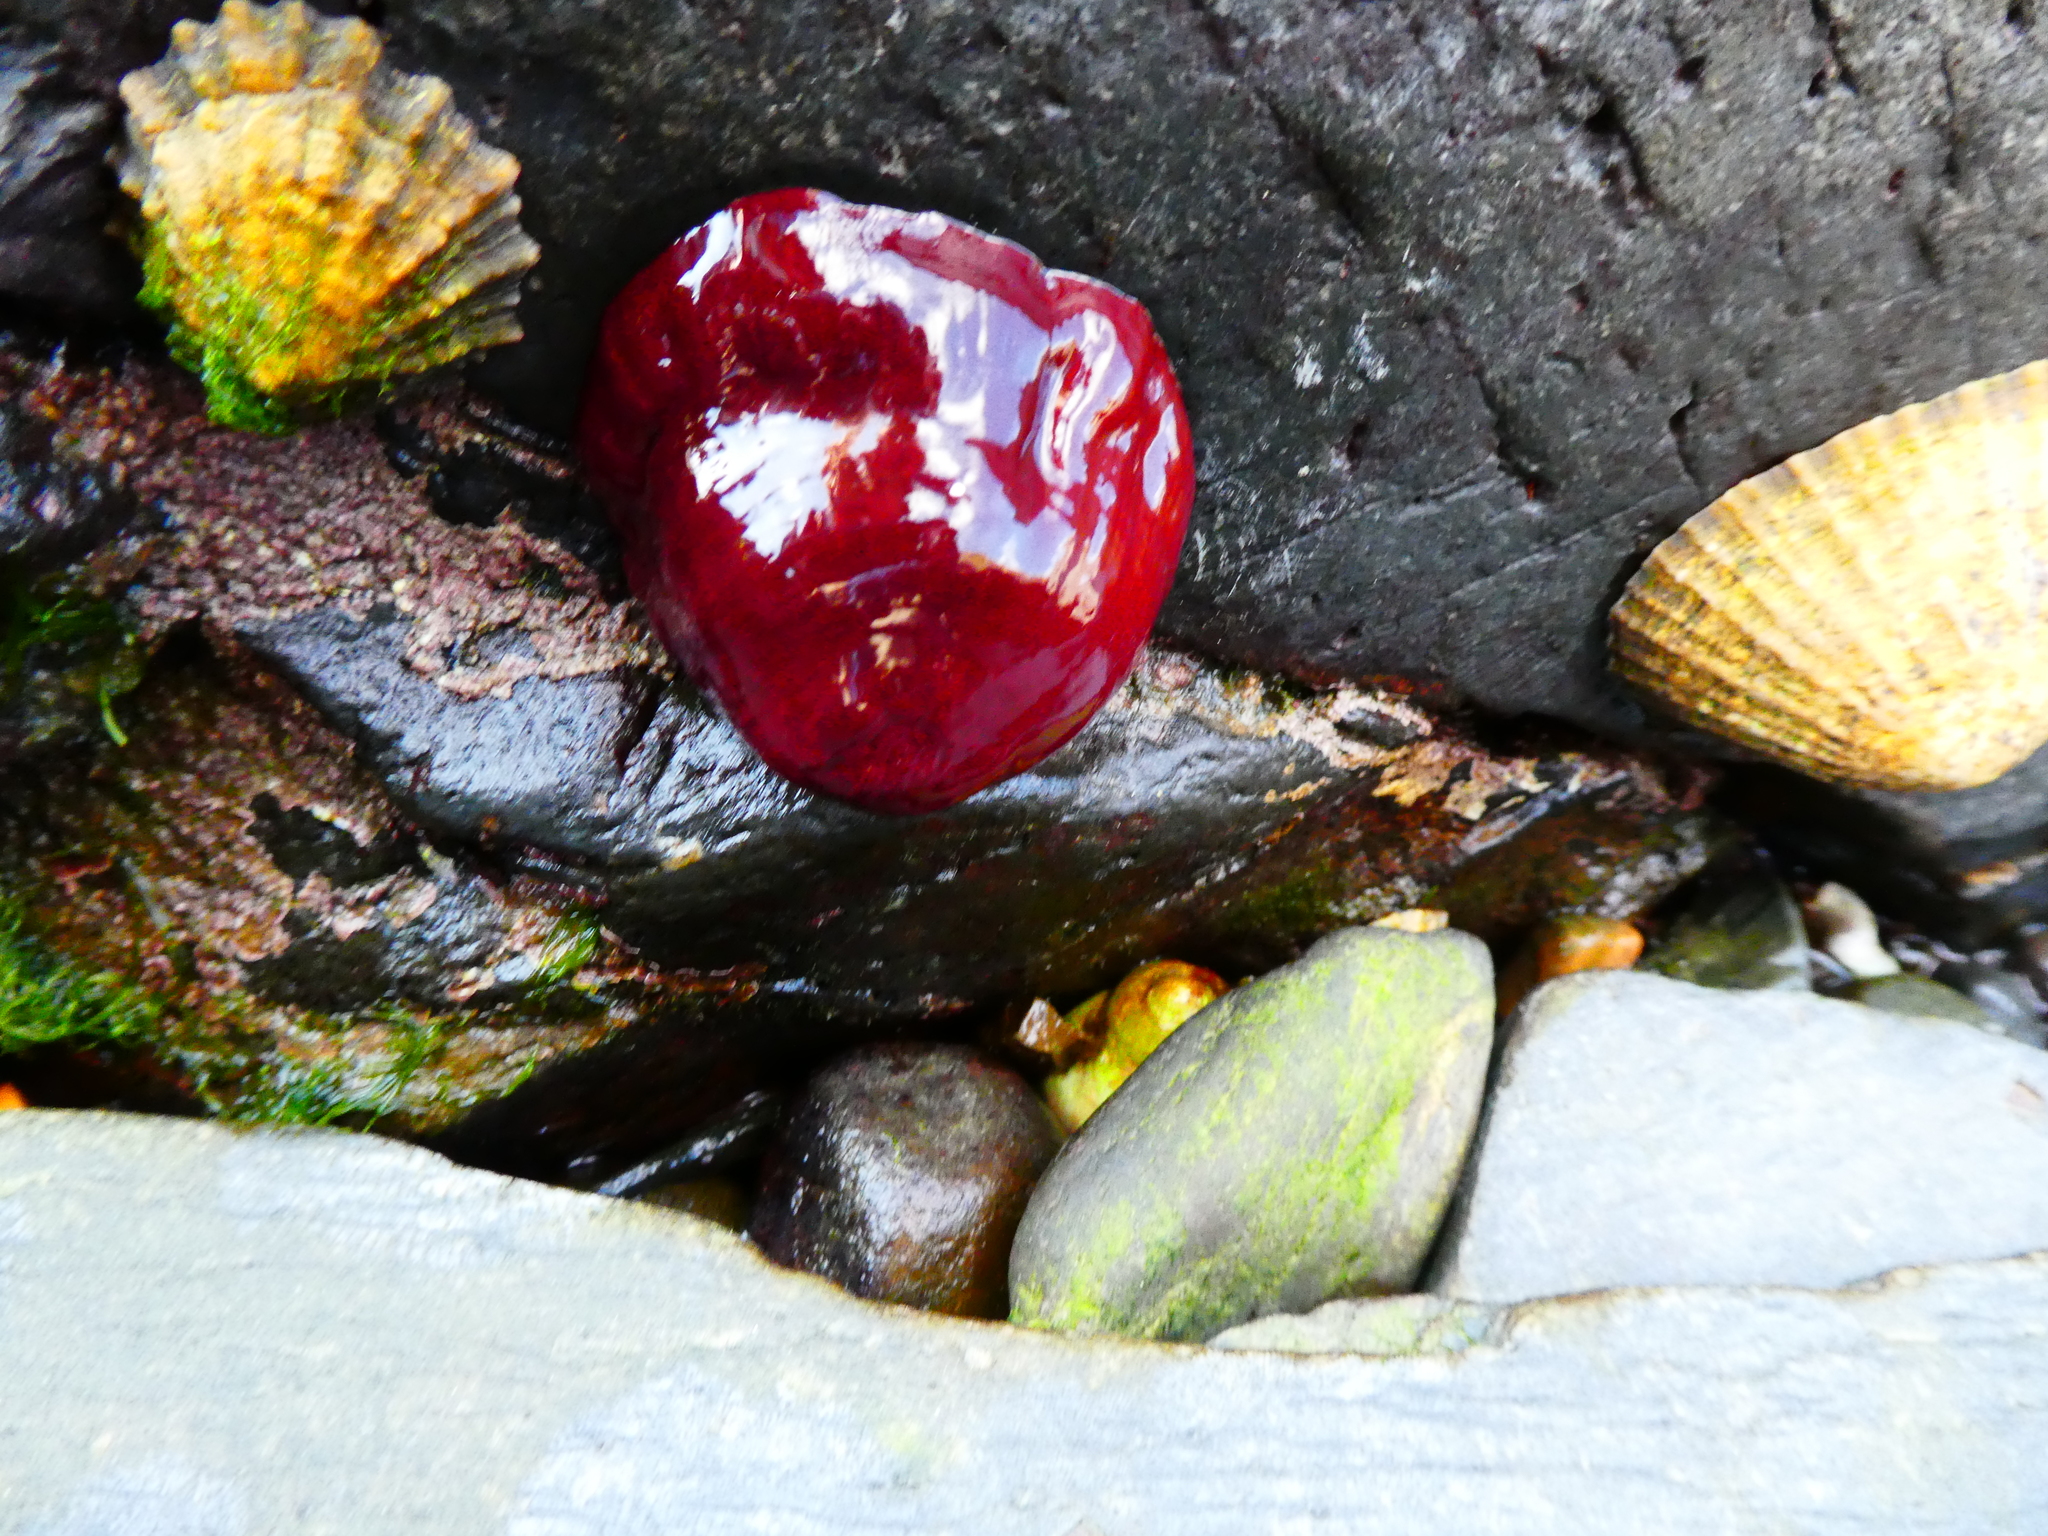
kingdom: Animalia
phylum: Cnidaria
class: Anthozoa
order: Actiniaria
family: Actiniidae
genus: Actinia
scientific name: Actinia equina
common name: Beadlet anemone
